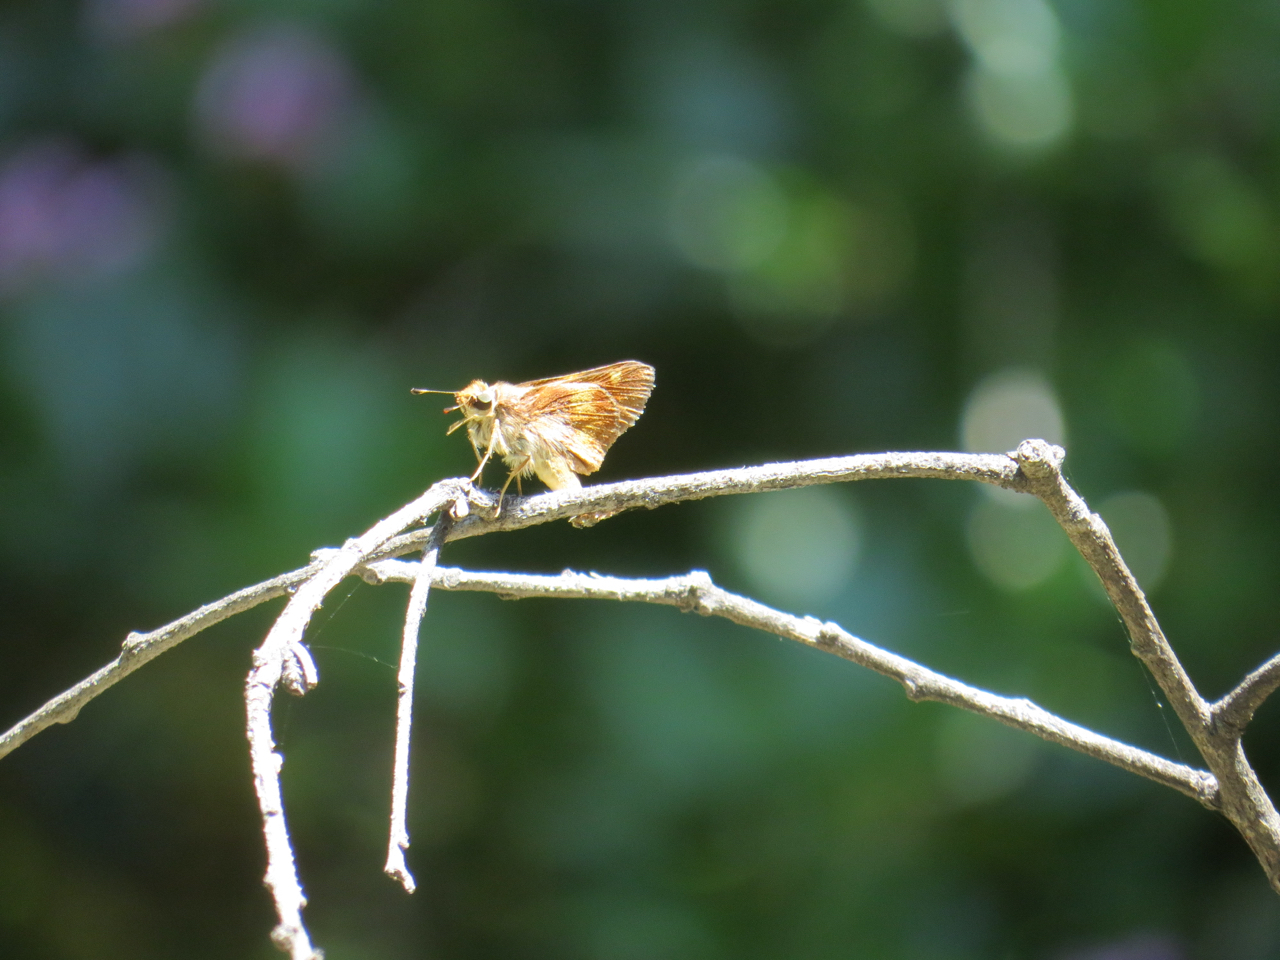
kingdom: Animalia
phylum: Arthropoda
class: Insecta
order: Lepidoptera
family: Hesperiidae
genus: Lon
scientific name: Lon melane
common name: Umber skipper
